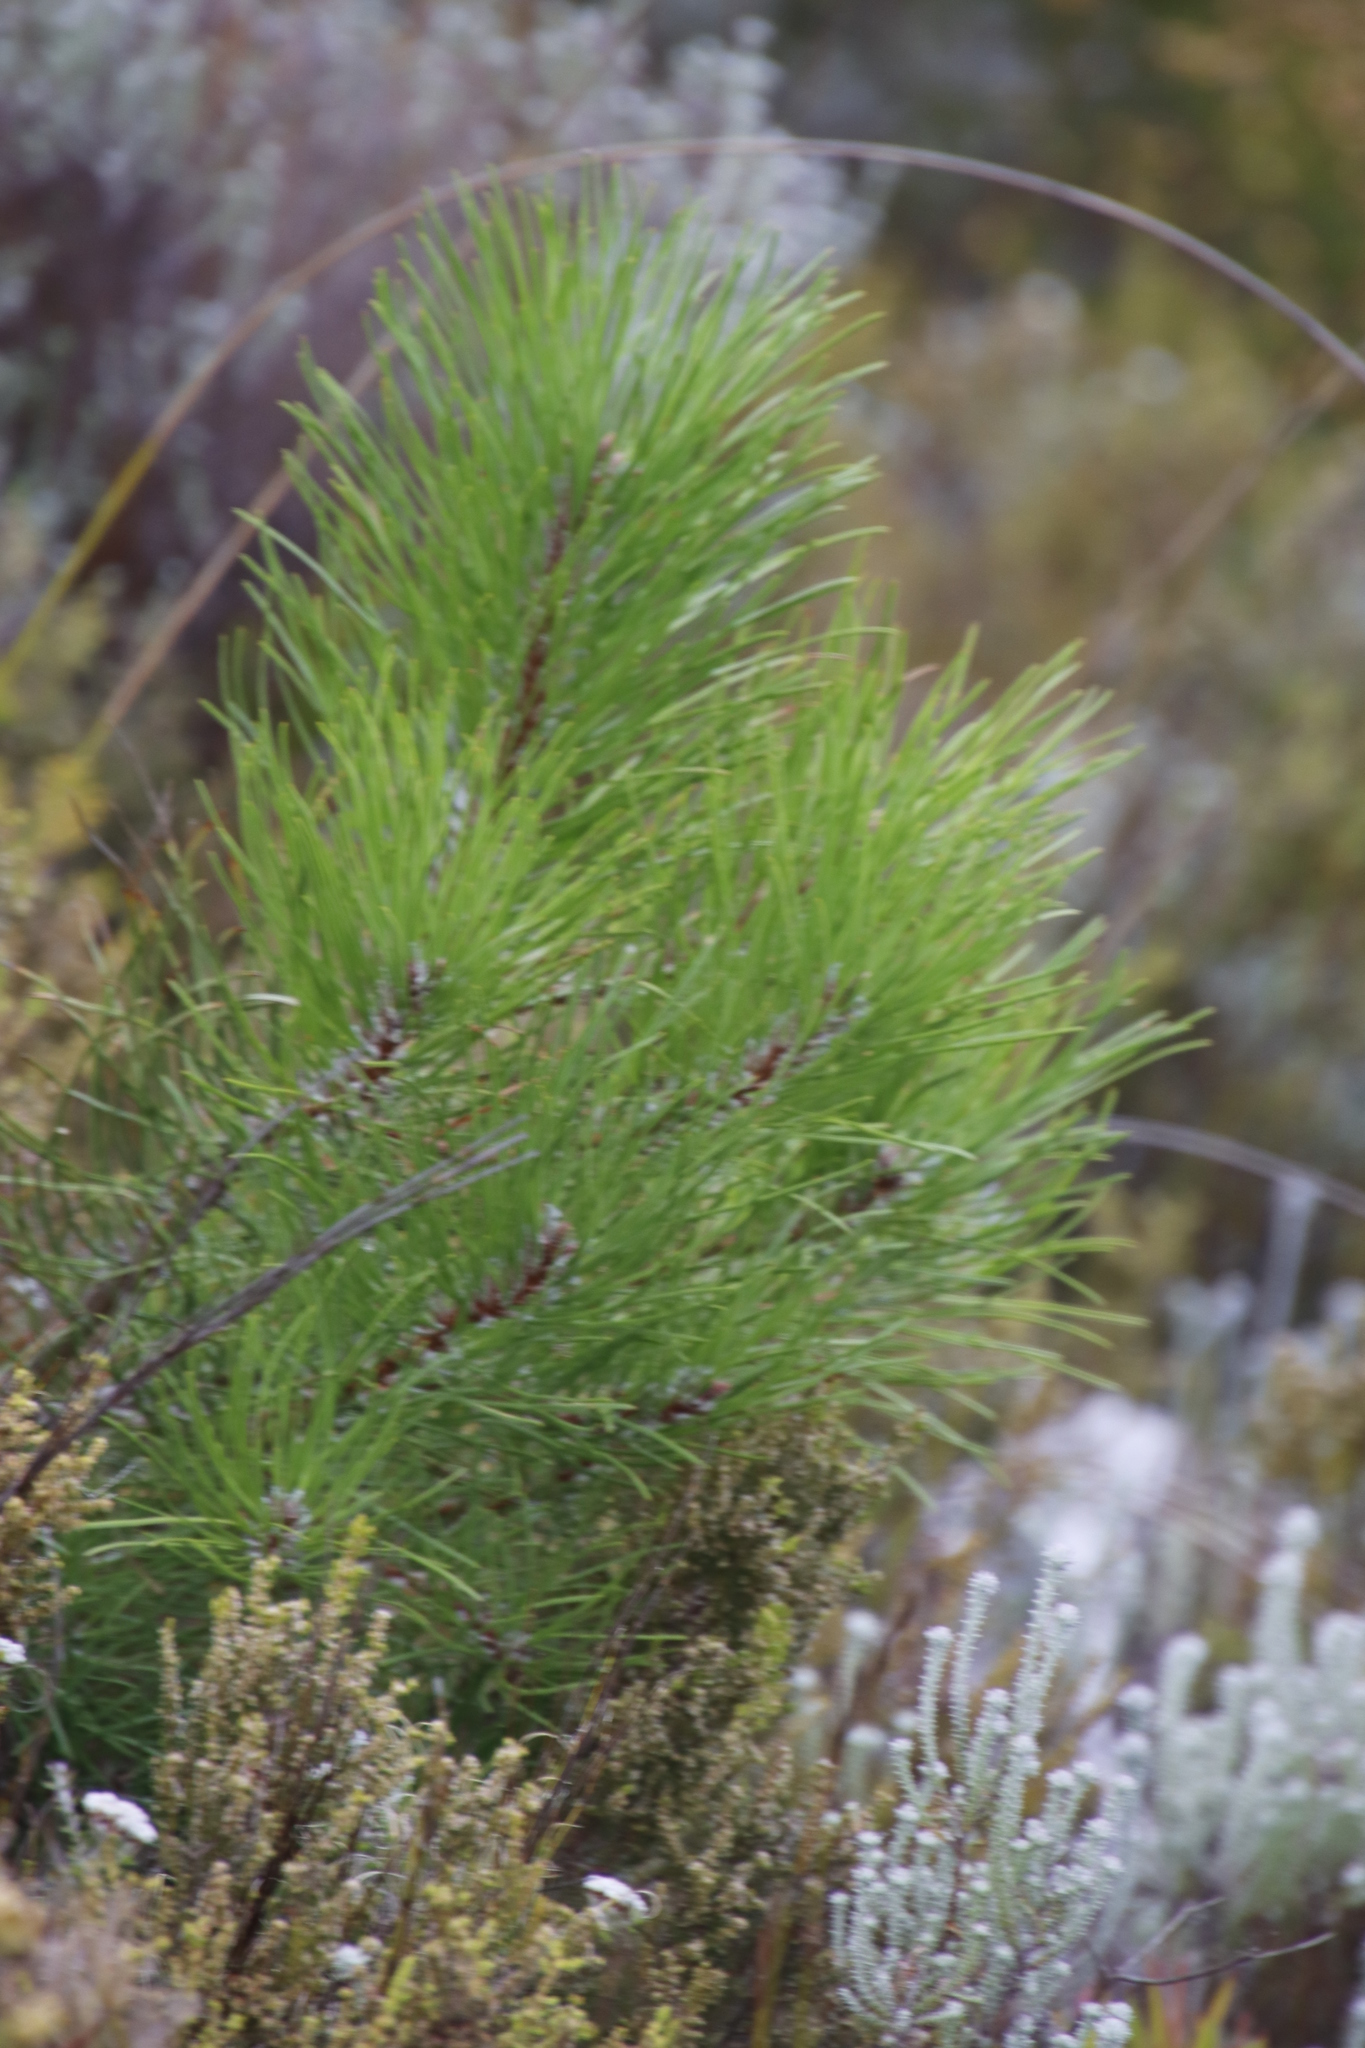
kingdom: Plantae
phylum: Tracheophyta
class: Pinopsida
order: Pinales
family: Pinaceae
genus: Pinus
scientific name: Pinus pinaster
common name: Maritime pine
